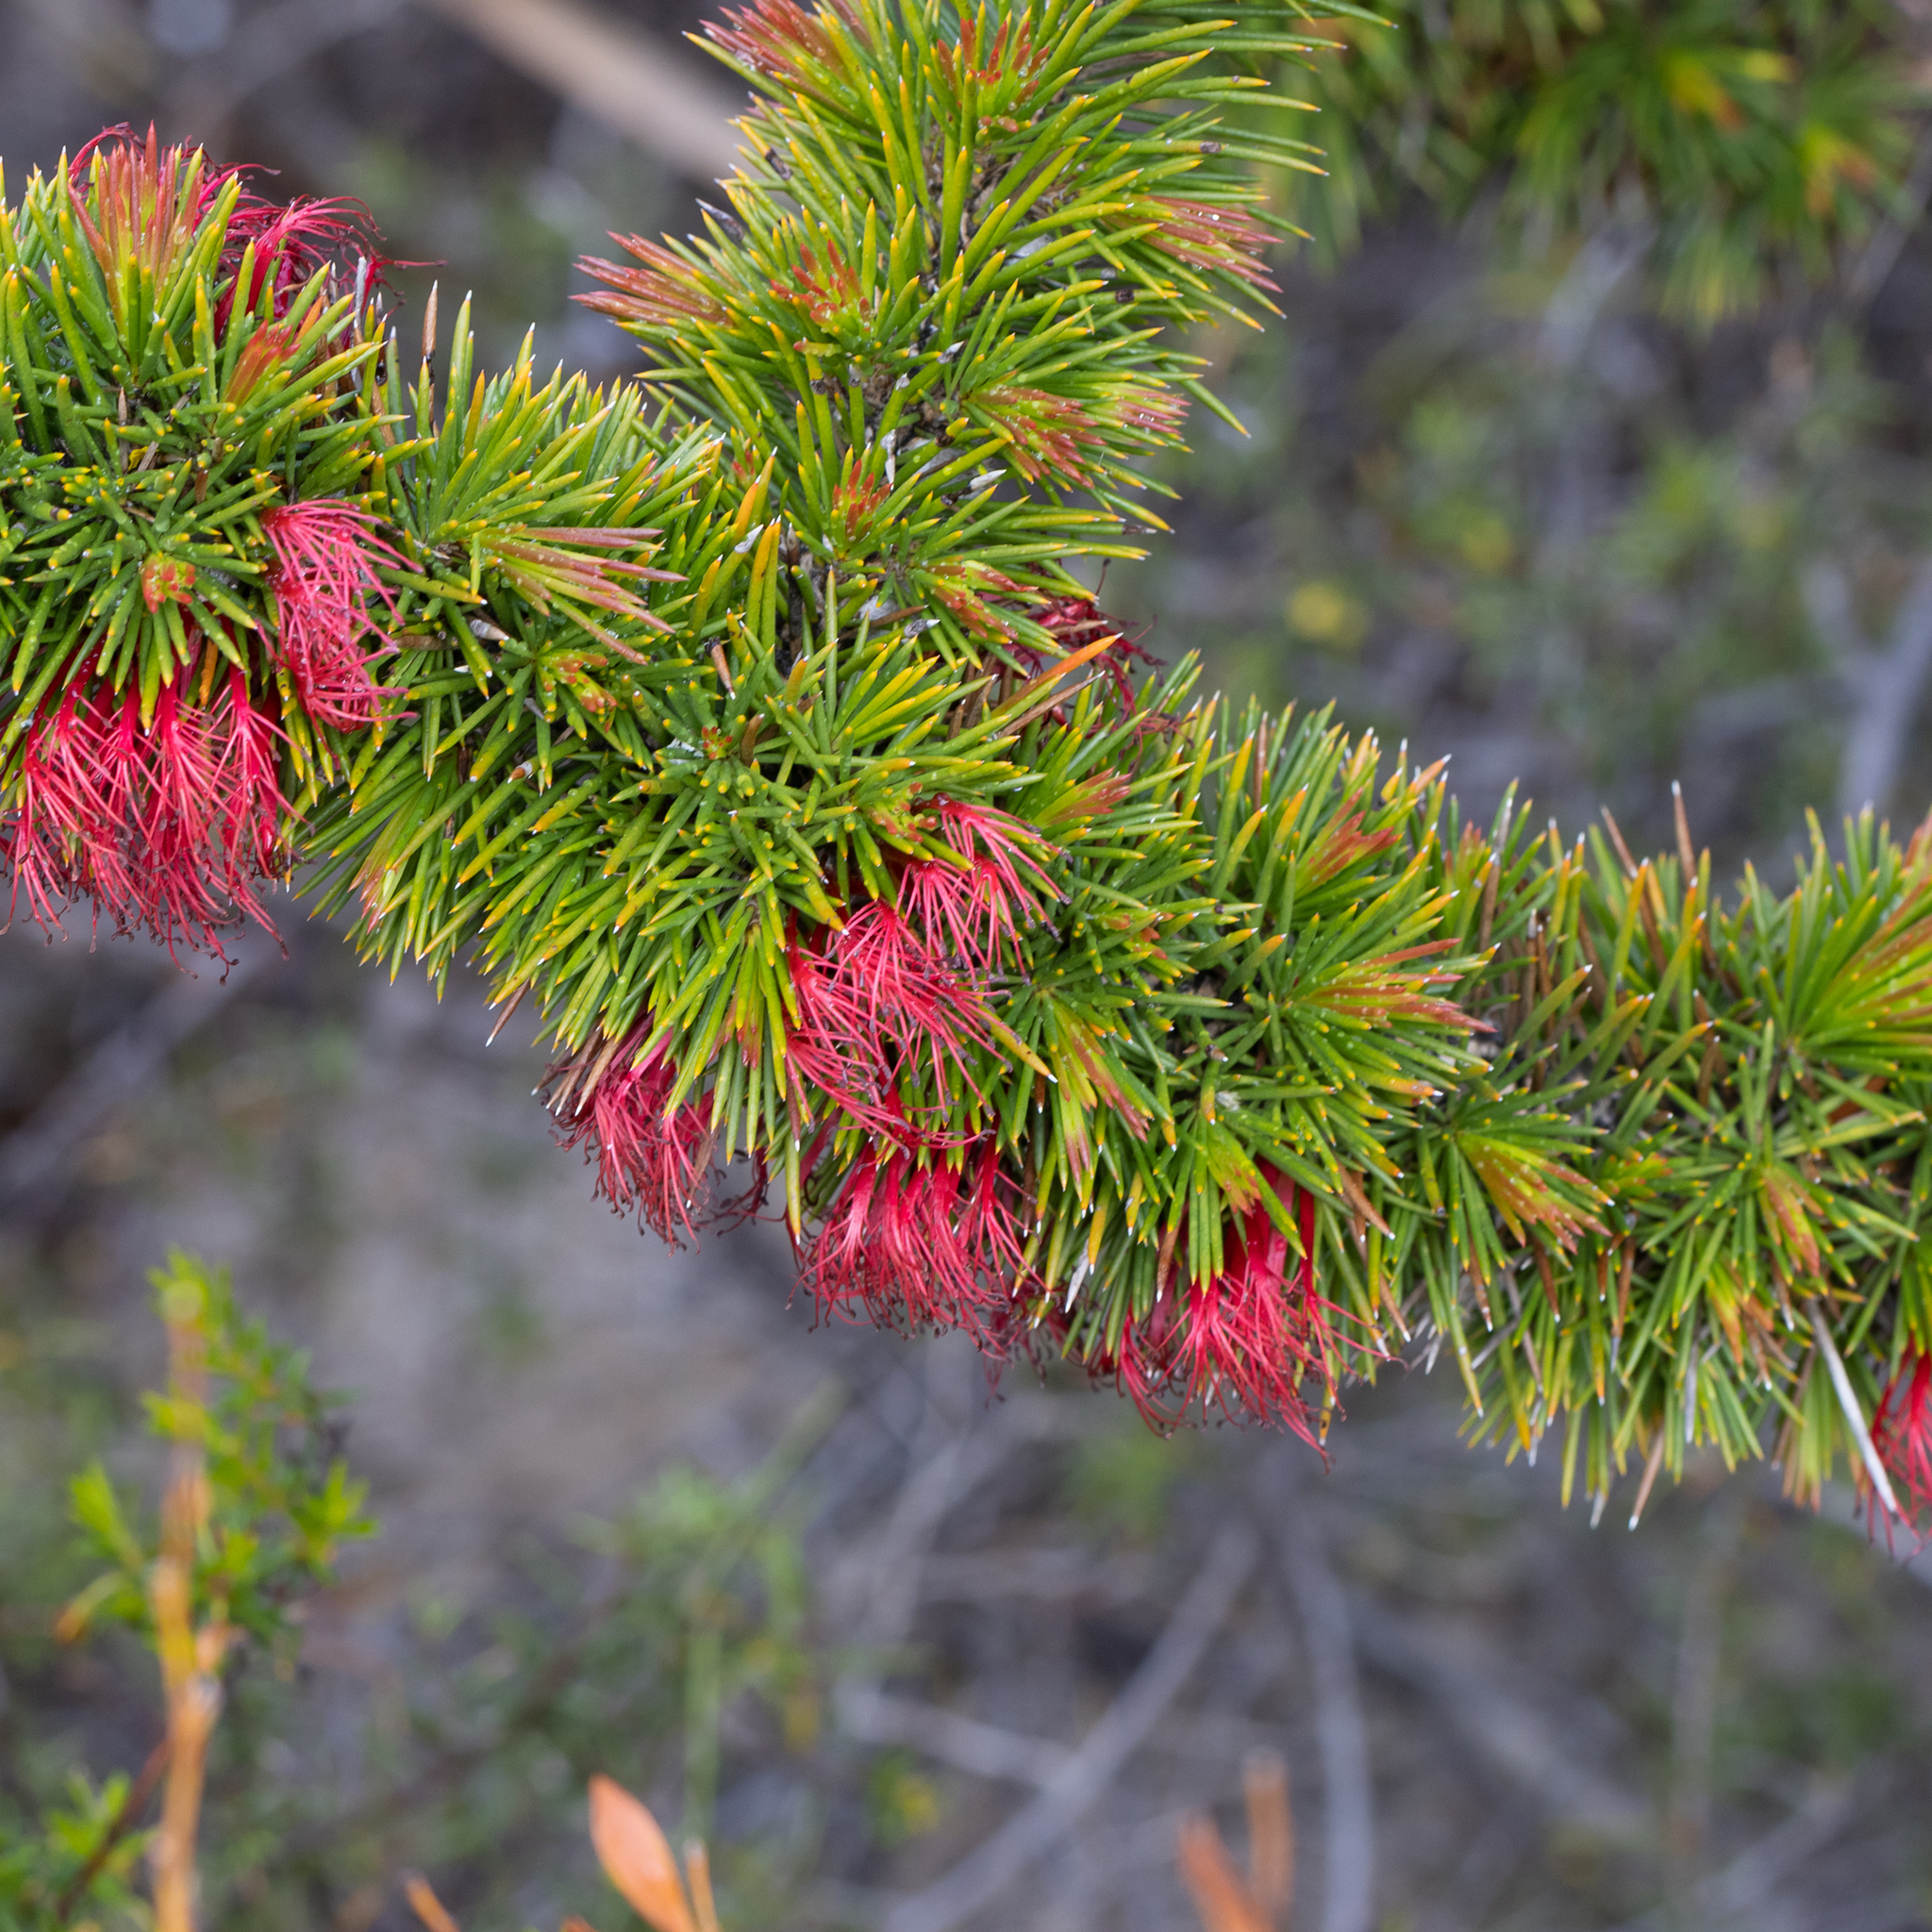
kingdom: Plantae
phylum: Tracheophyta
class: Magnoliopsida
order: Myrtales
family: Myrtaceae
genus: Melaleuca
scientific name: Melaleuca peucophylla
